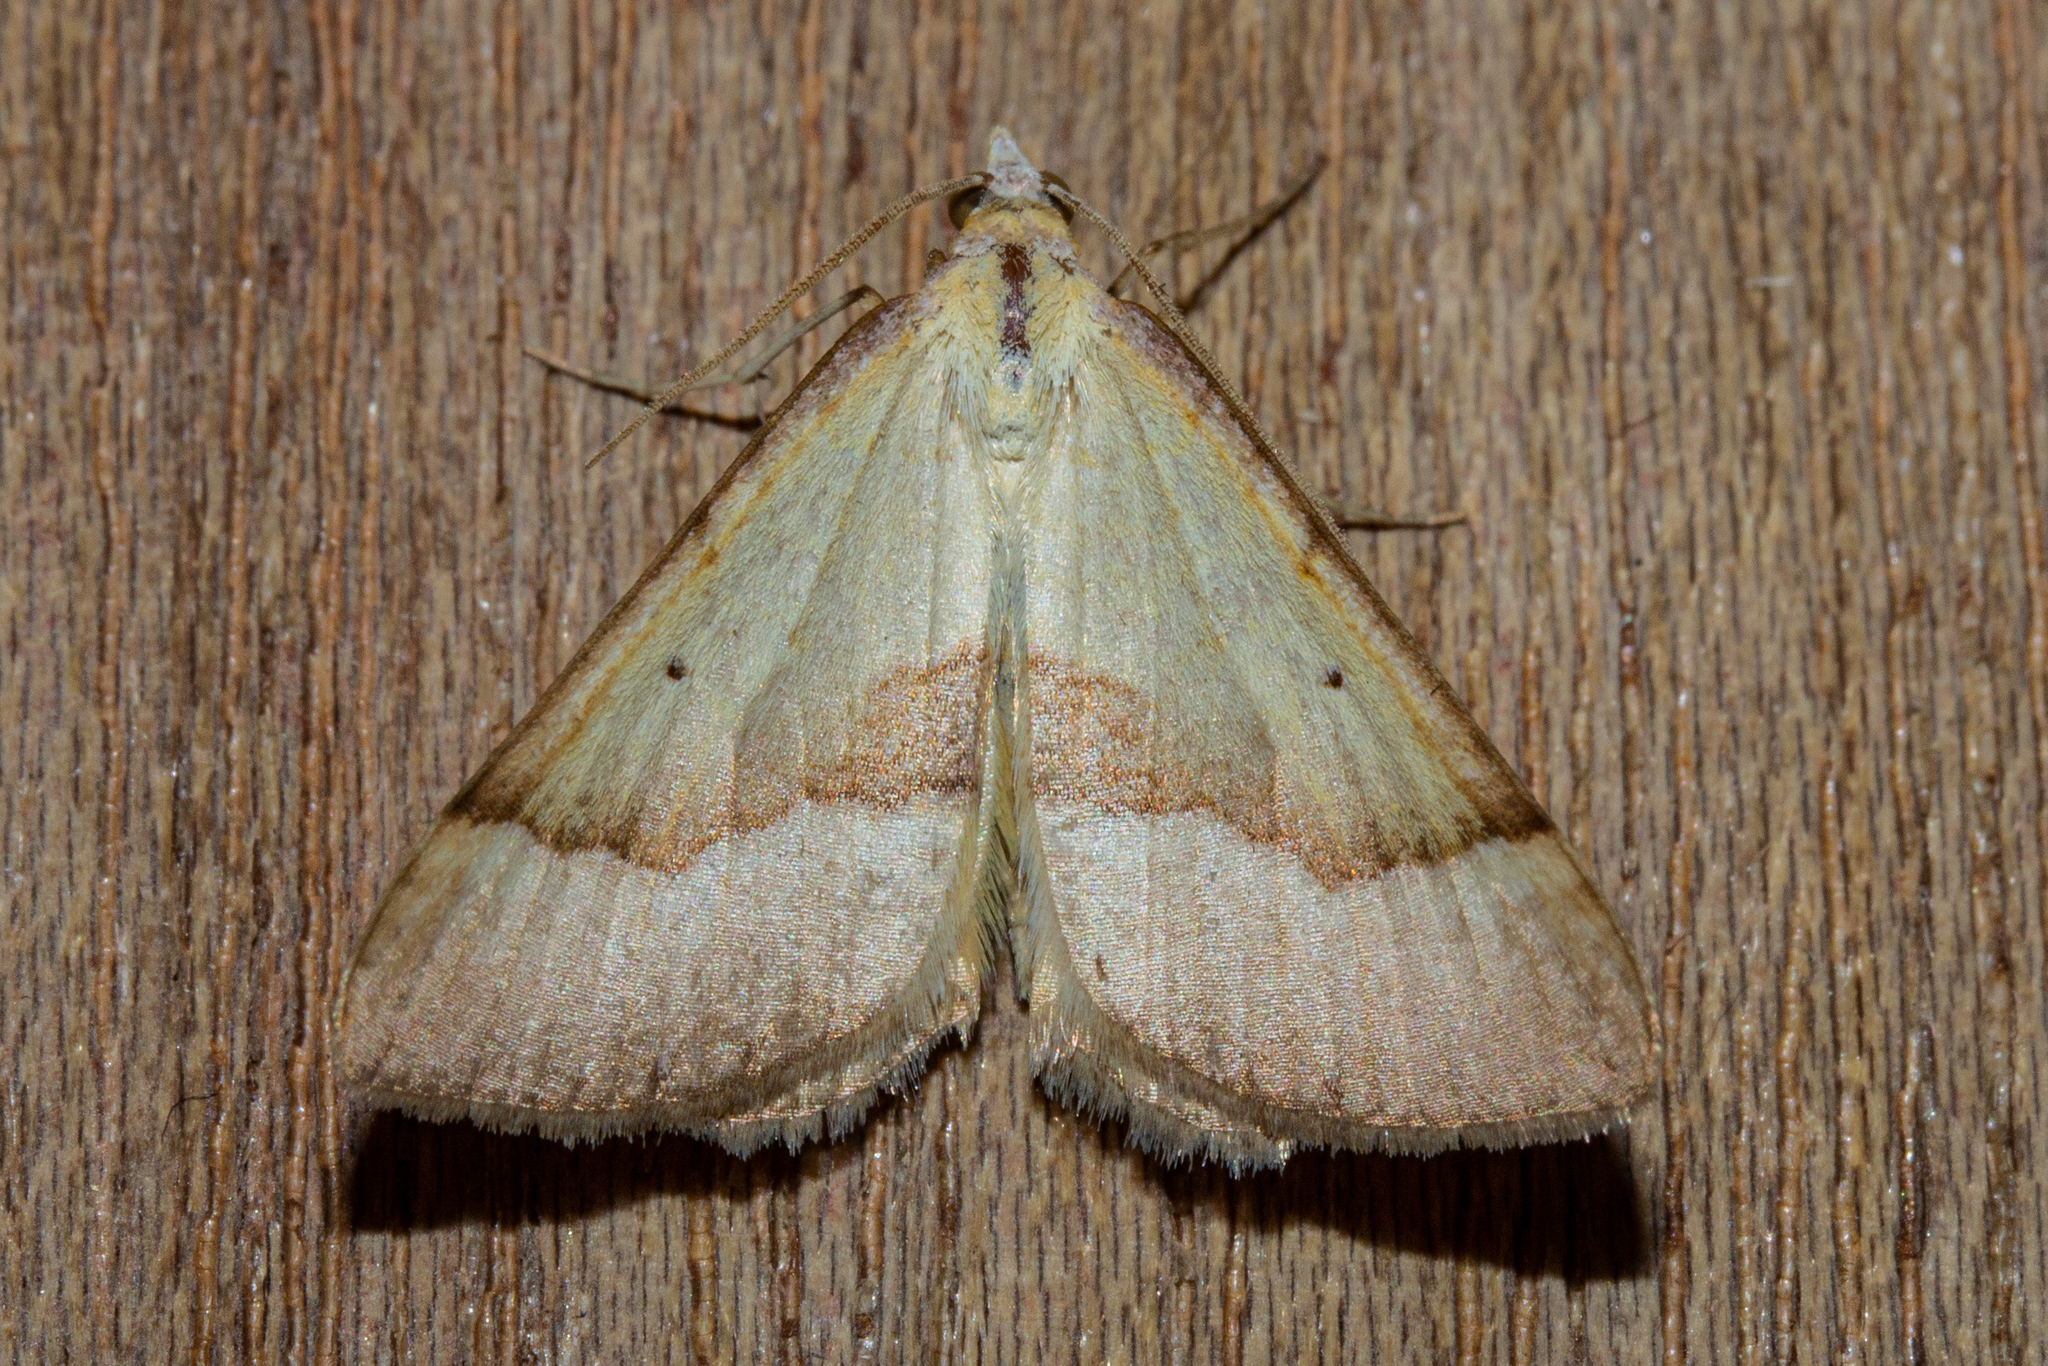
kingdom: Animalia
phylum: Arthropoda
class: Insecta
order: Lepidoptera
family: Geometridae
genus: Anachloris
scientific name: Anachloris subochraria
